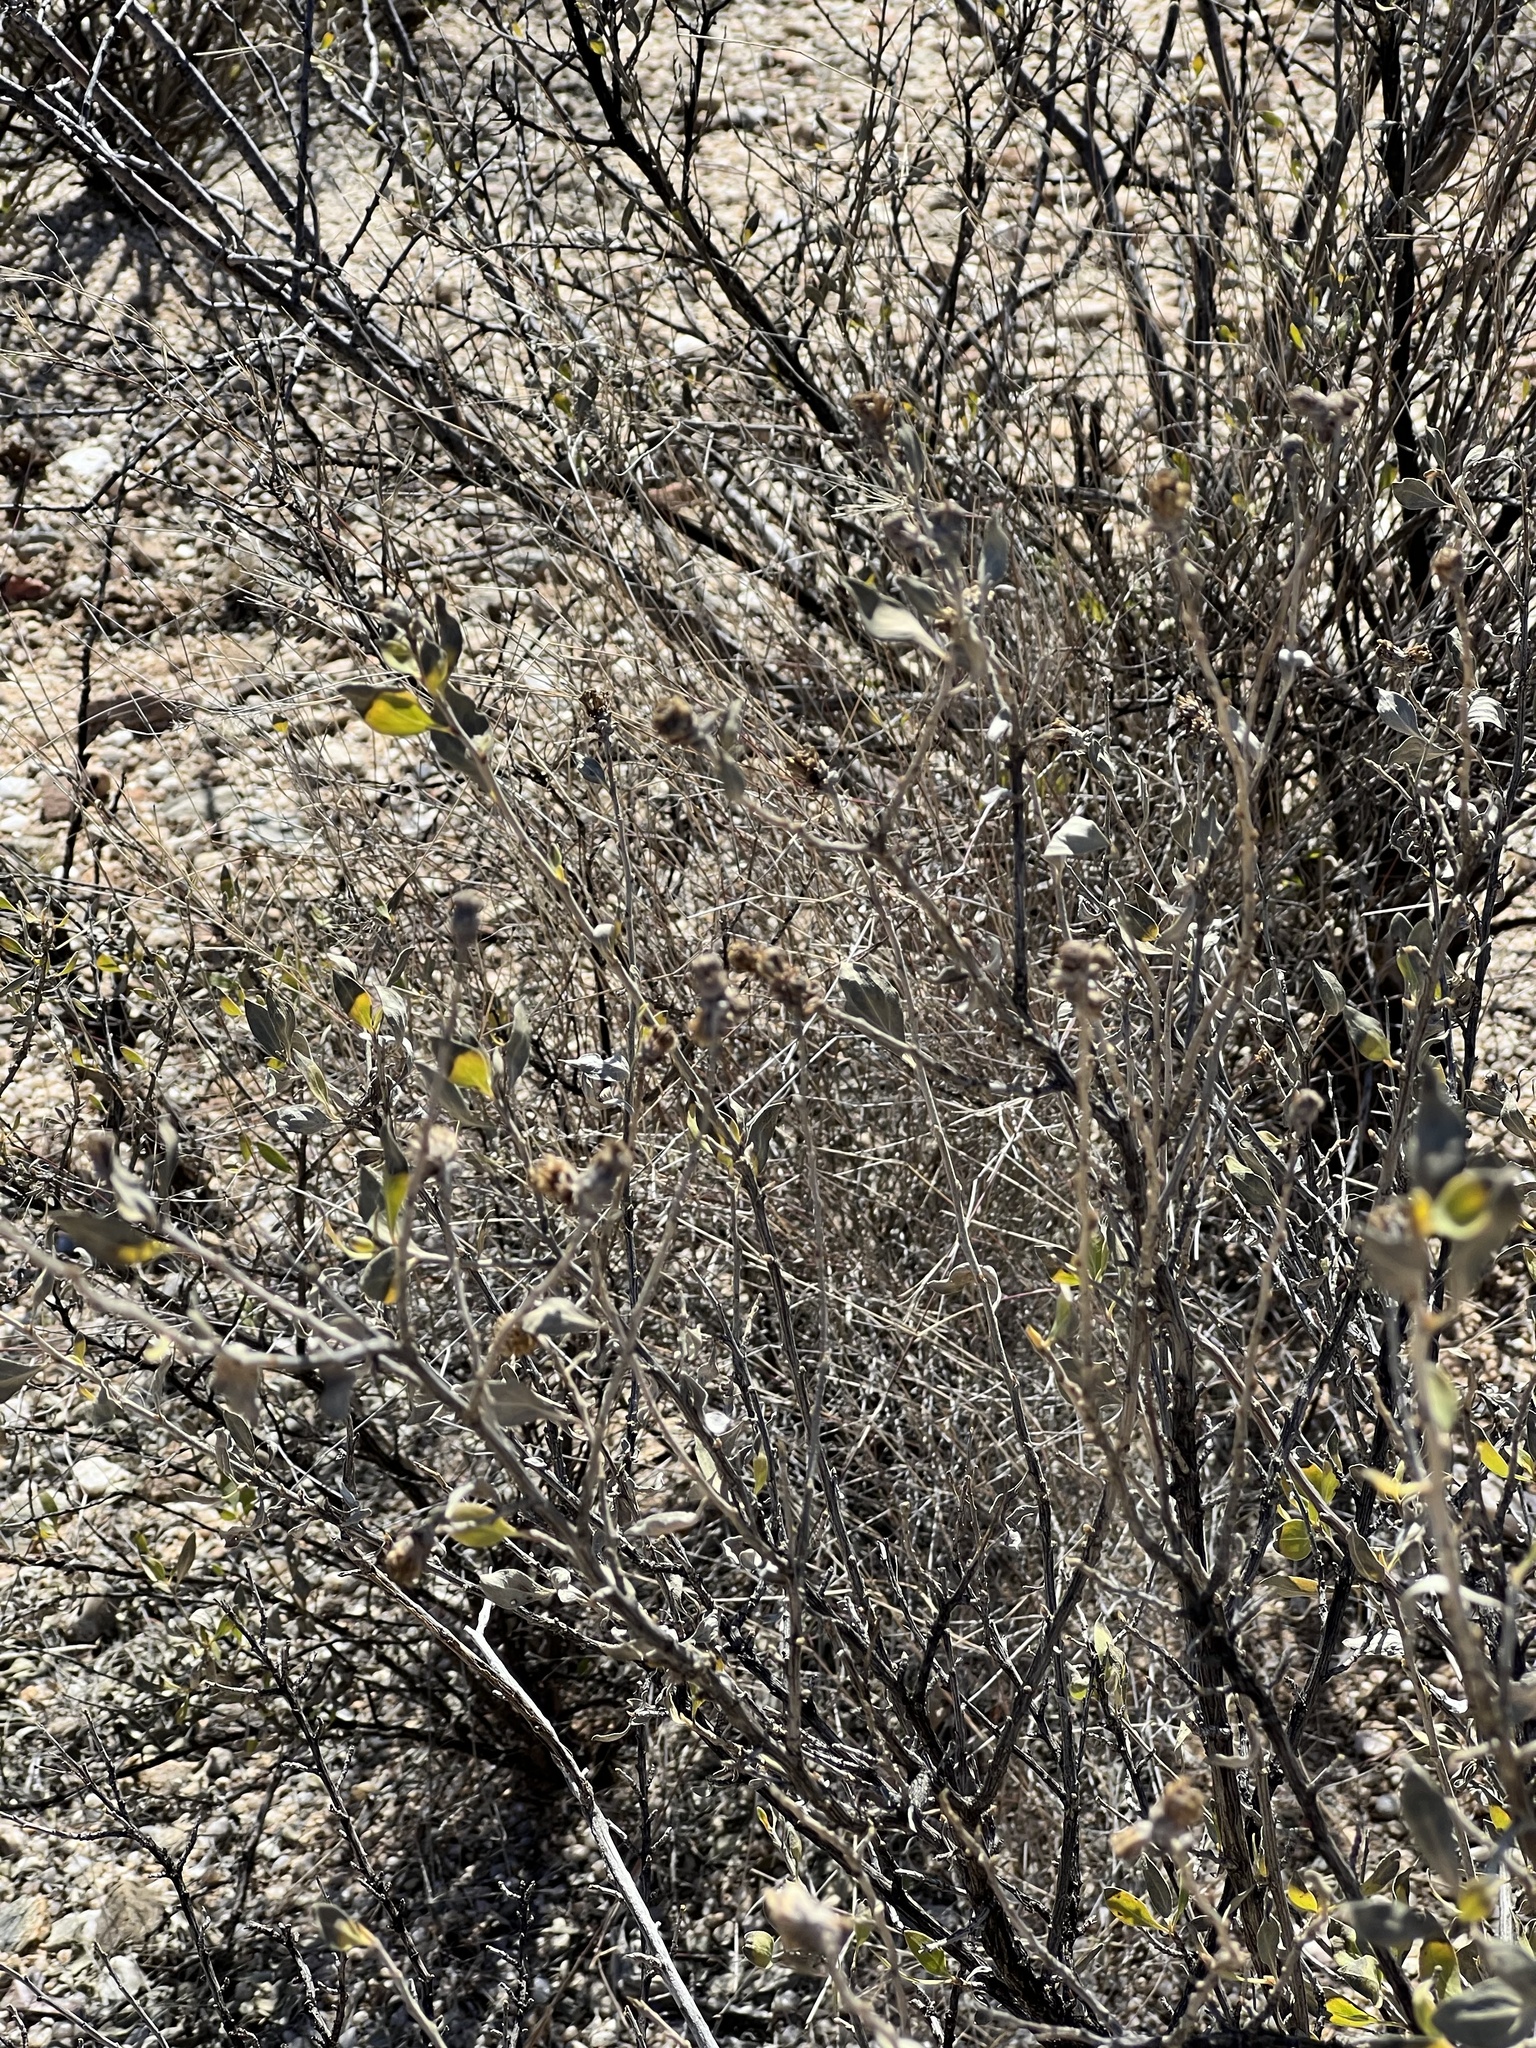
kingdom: Plantae
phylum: Tracheophyta
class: Magnoliopsida
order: Asterales
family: Asteraceae
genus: Flourensia
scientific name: Flourensia cernua
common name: Varnishbush
